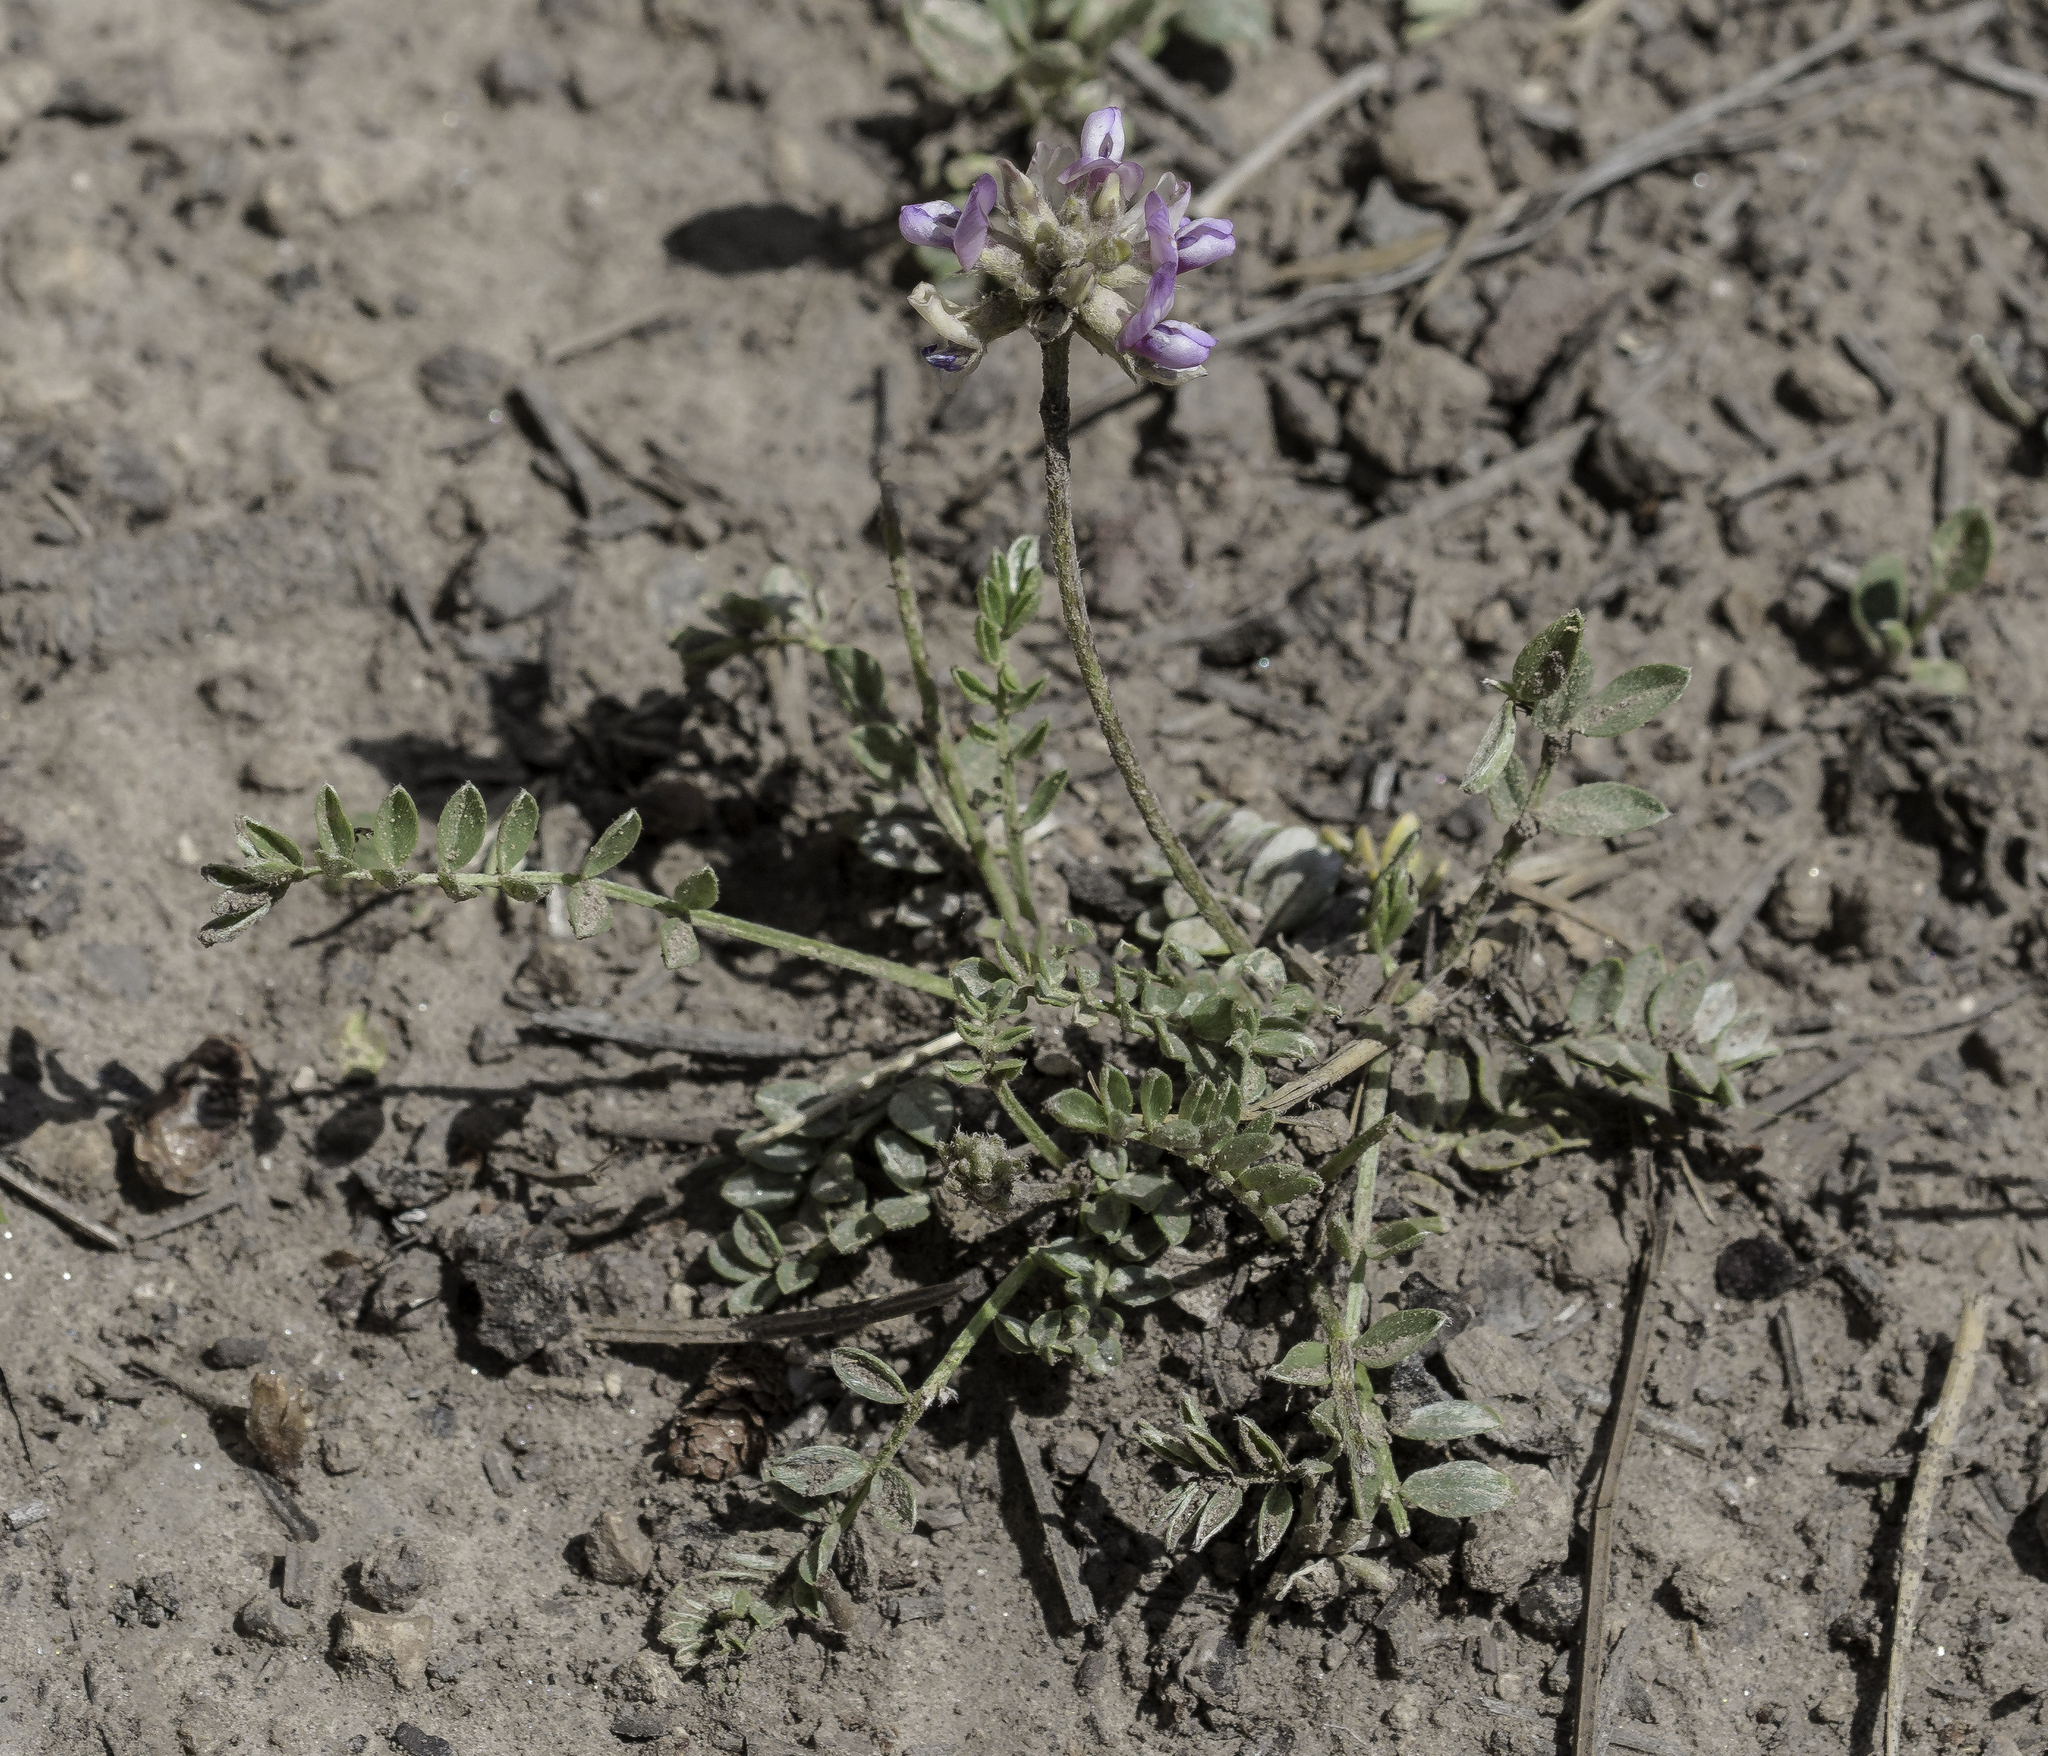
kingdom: Plantae
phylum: Tracheophyta
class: Magnoliopsida
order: Fabales
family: Fabaceae
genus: Astragalus
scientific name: Astragalus gilensis
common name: Gila milk-vetch
